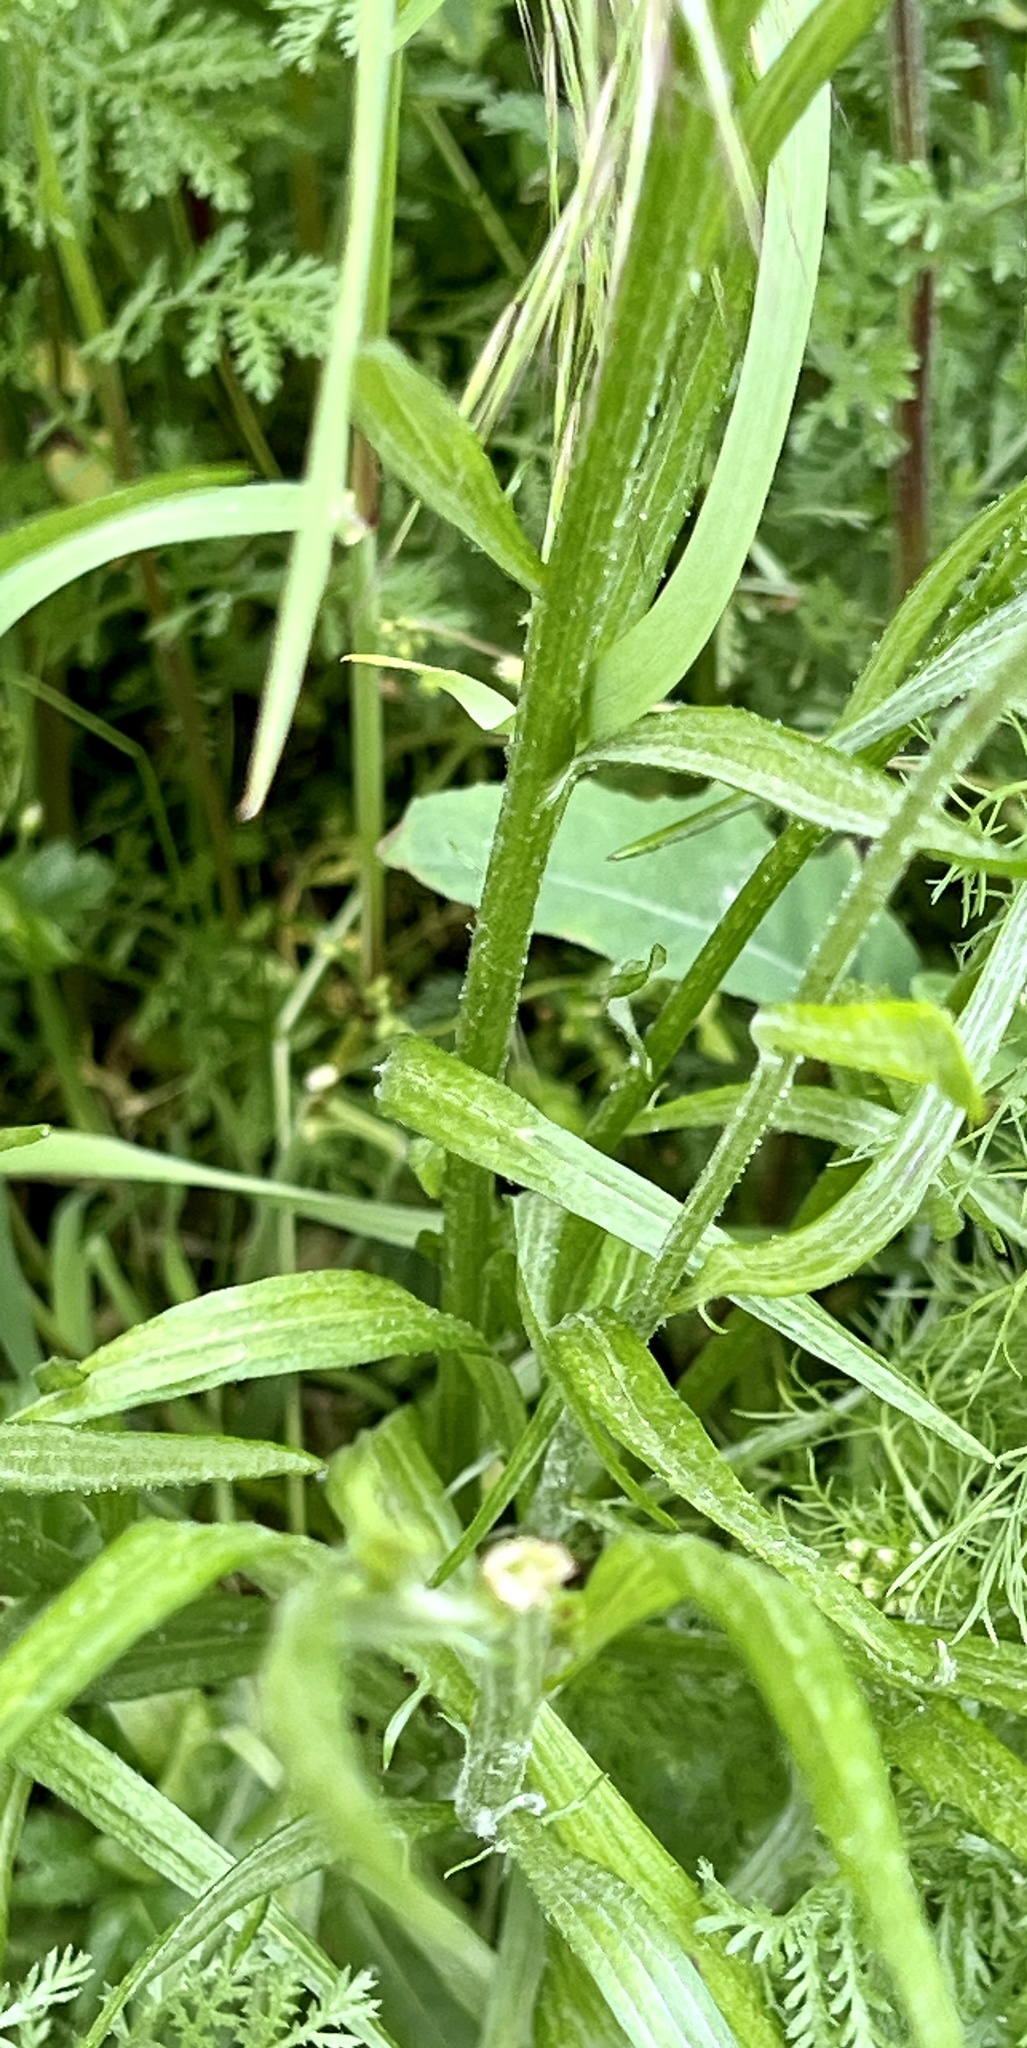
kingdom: Plantae
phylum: Tracheophyta
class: Magnoliopsida
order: Asterales
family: Asteraceae
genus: Centaurea
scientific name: Centaurea cyanus
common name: Cornflower
